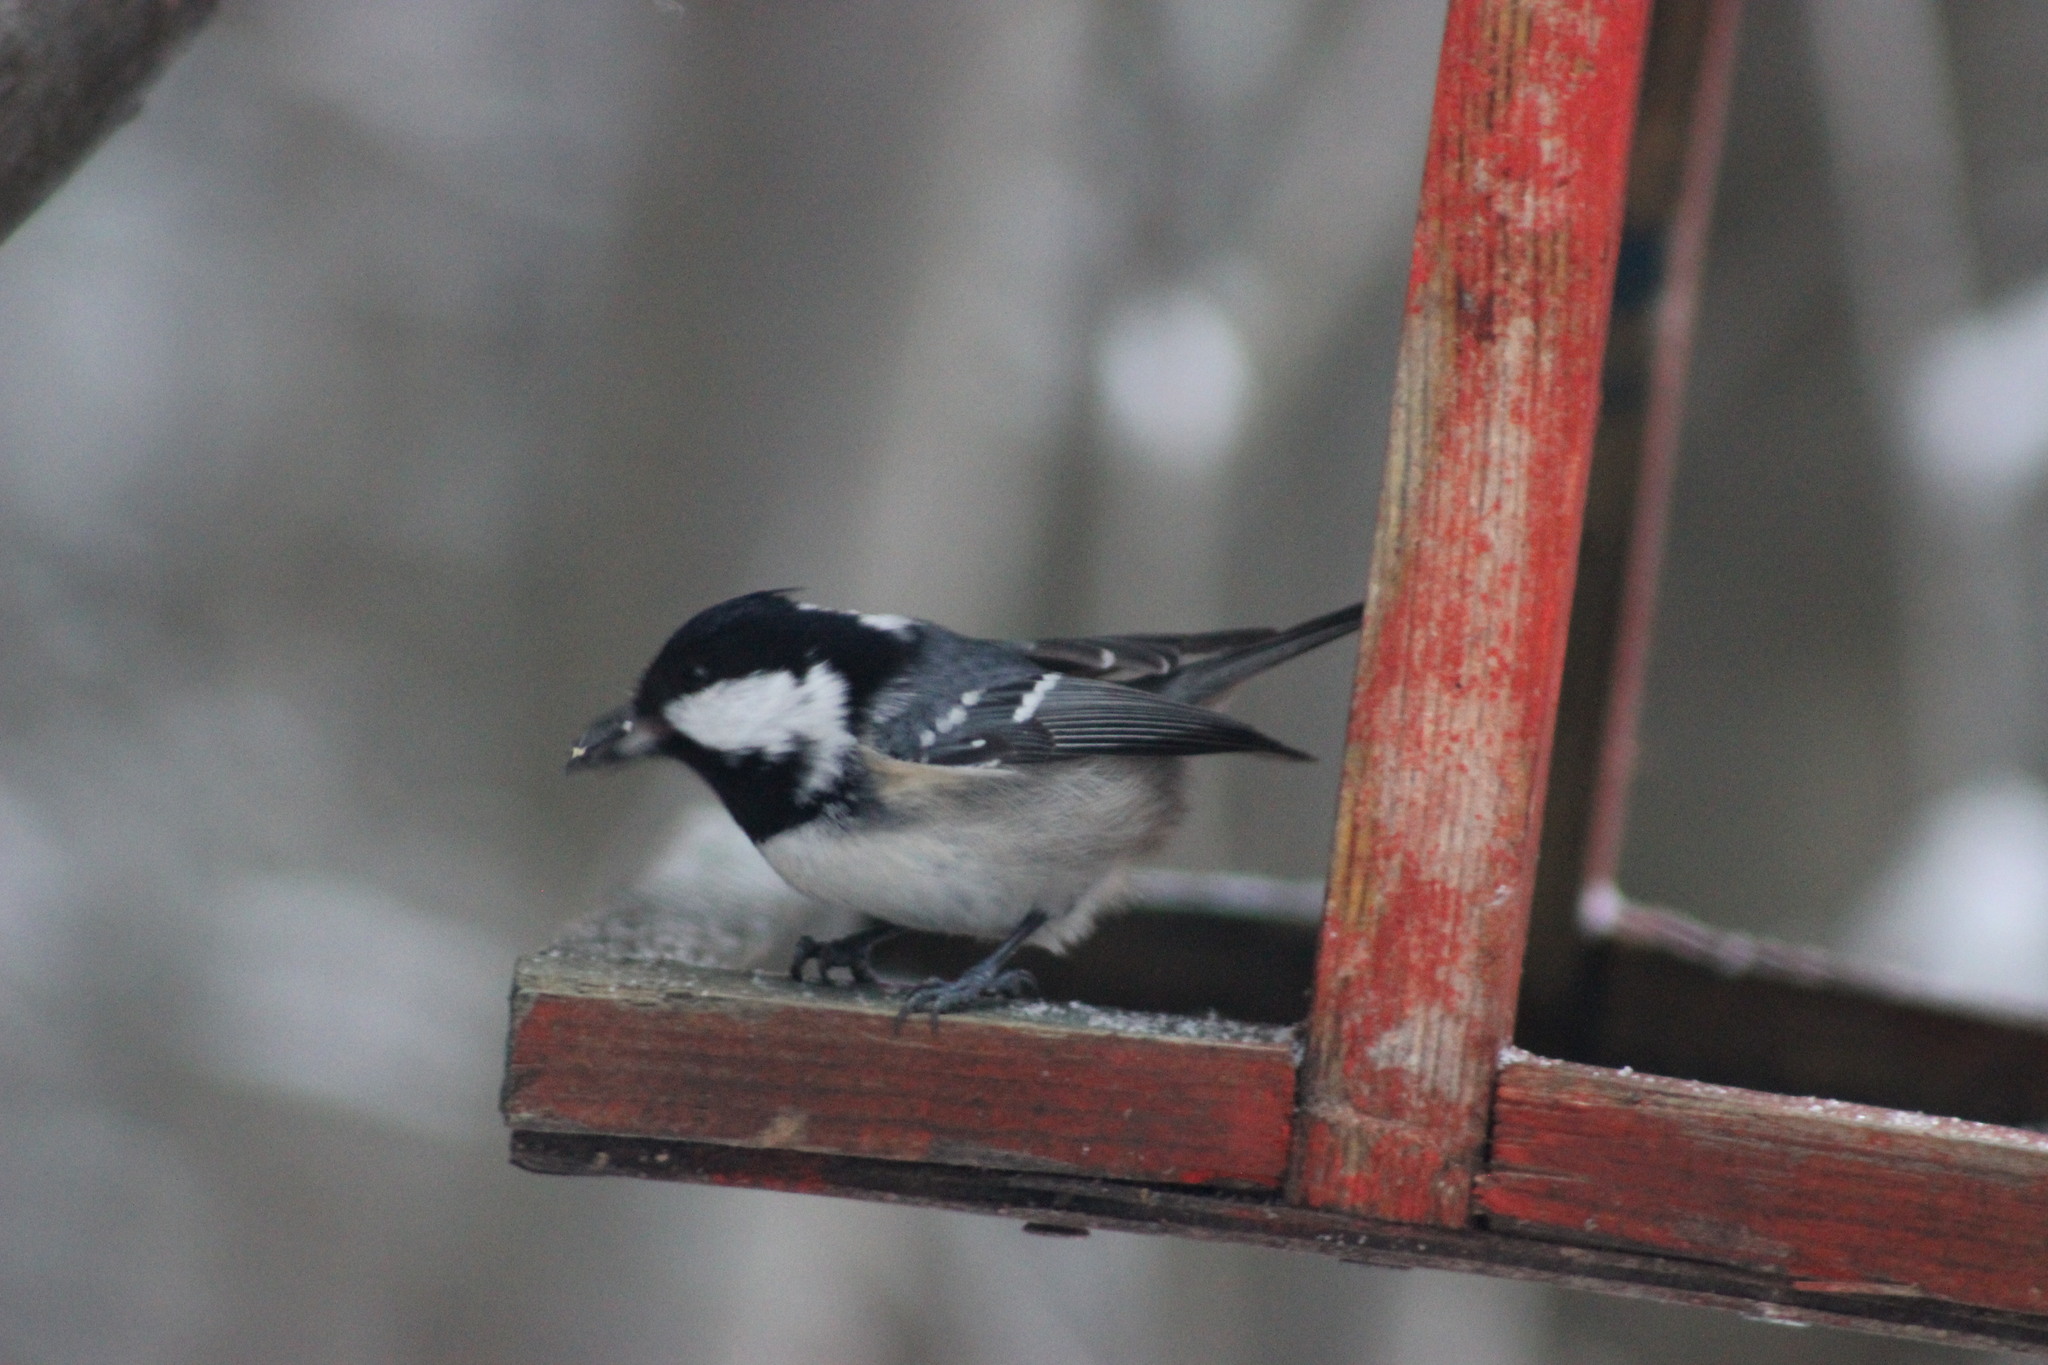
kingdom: Animalia
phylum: Chordata
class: Aves
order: Passeriformes
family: Paridae
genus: Periparus
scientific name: Periparus ater
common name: Coal tit
